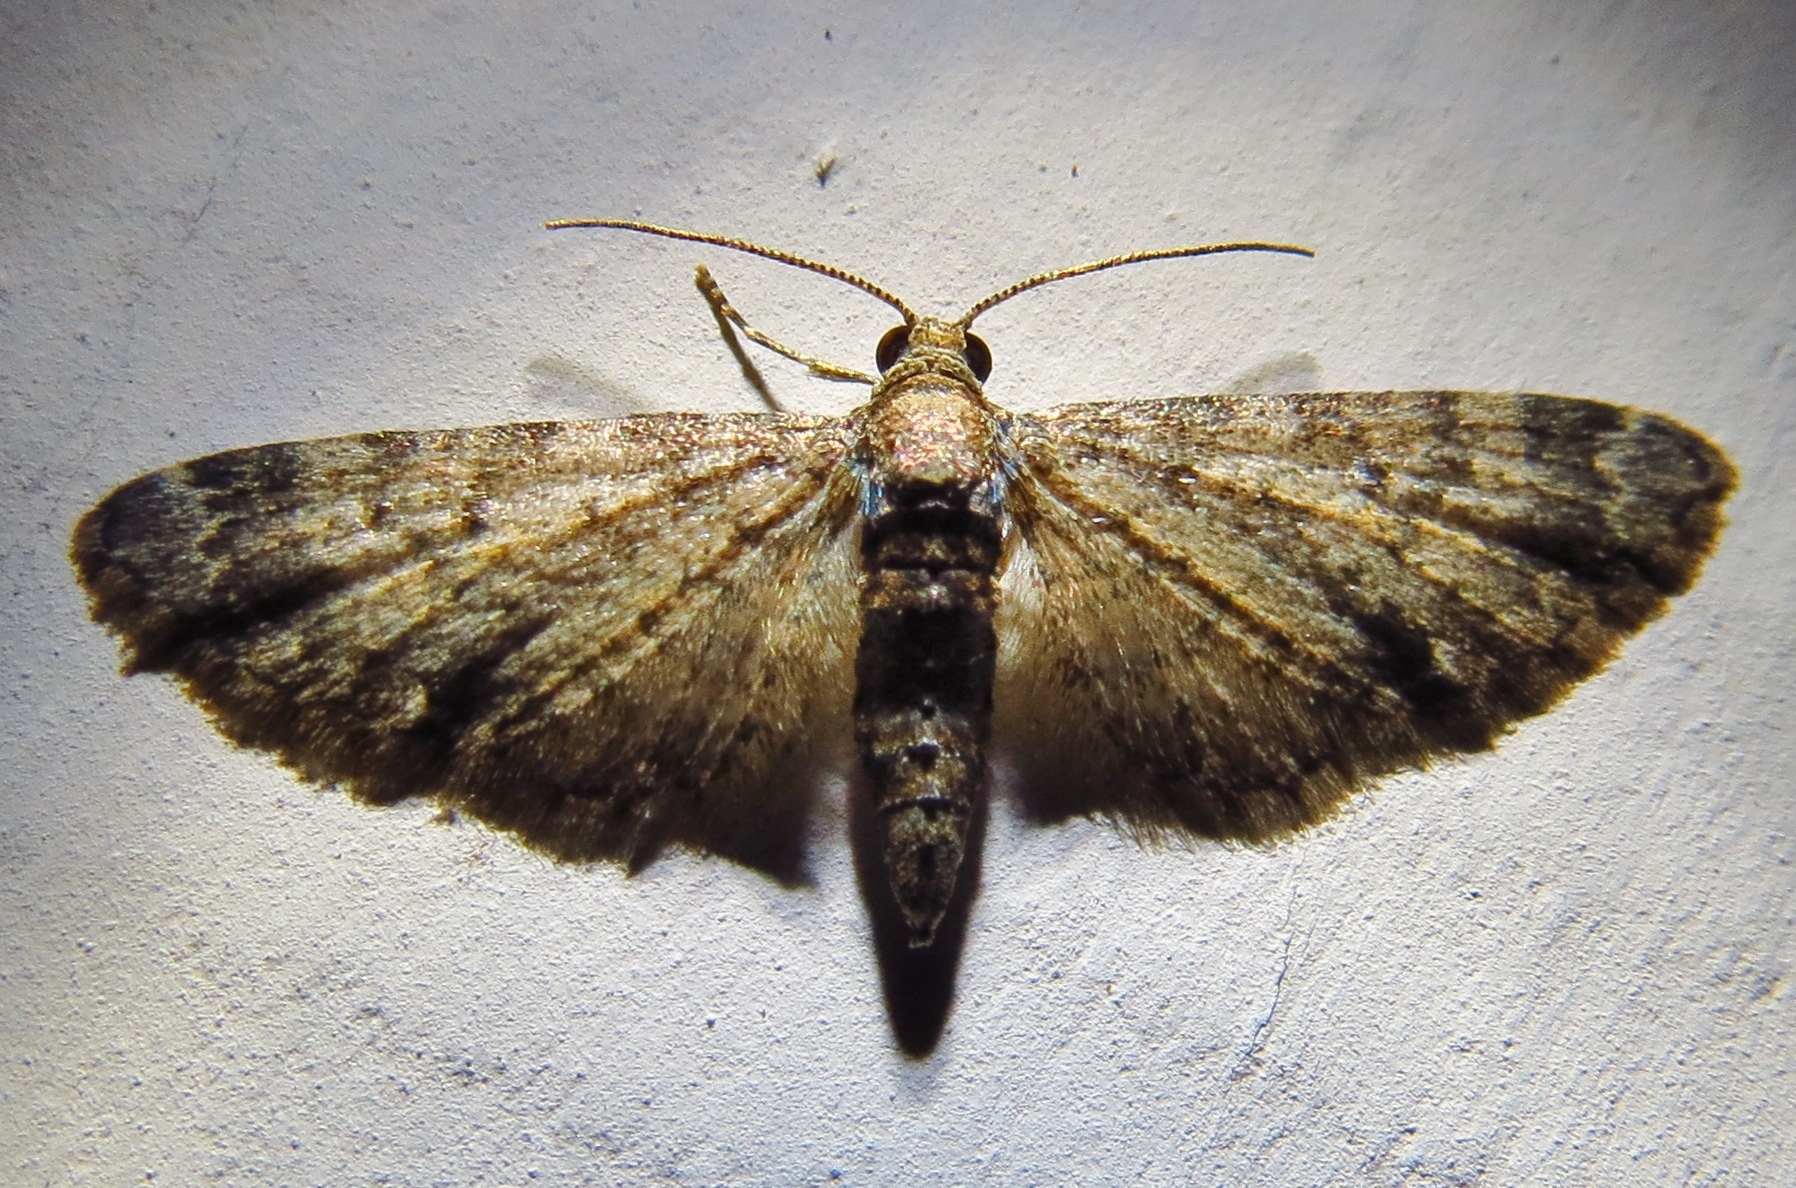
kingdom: Animalia
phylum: Arthropoda
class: Insecta
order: Lepidoptera
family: Geometridae
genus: Eupithecia
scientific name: Eupithecia miserulata
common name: Common eupithecia
